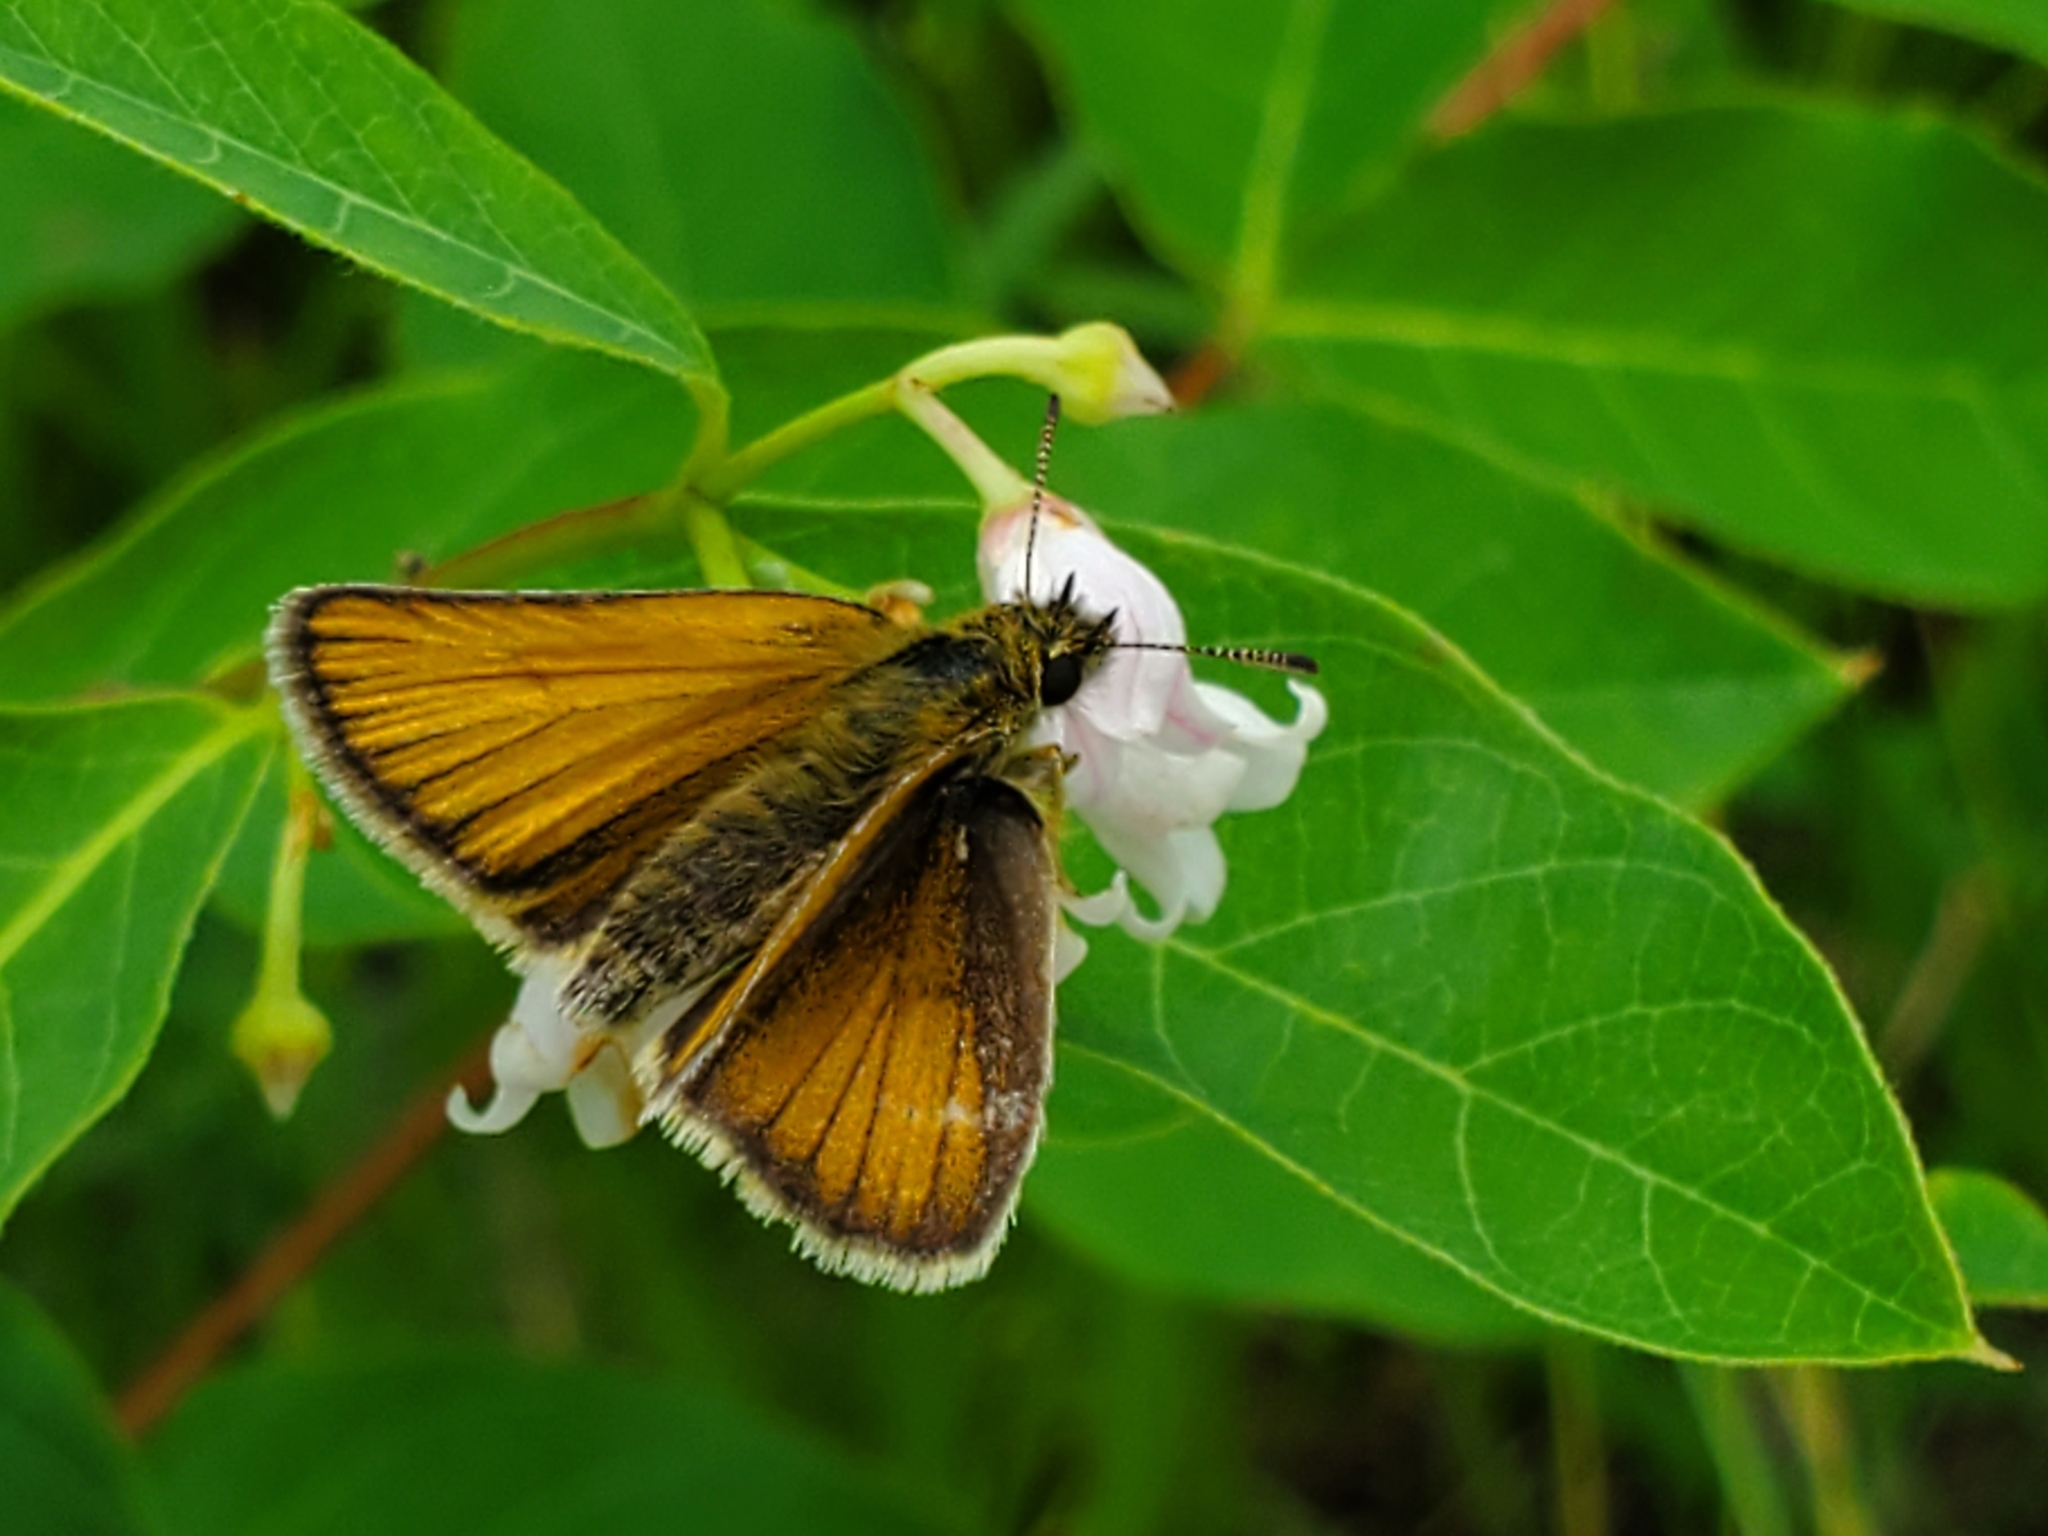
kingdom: Animalia
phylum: Arthropoda
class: Insecta
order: Lepidoptera
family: Hesperiidae
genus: Thymelicus
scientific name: Thymelicus lineola
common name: Essex skipper
